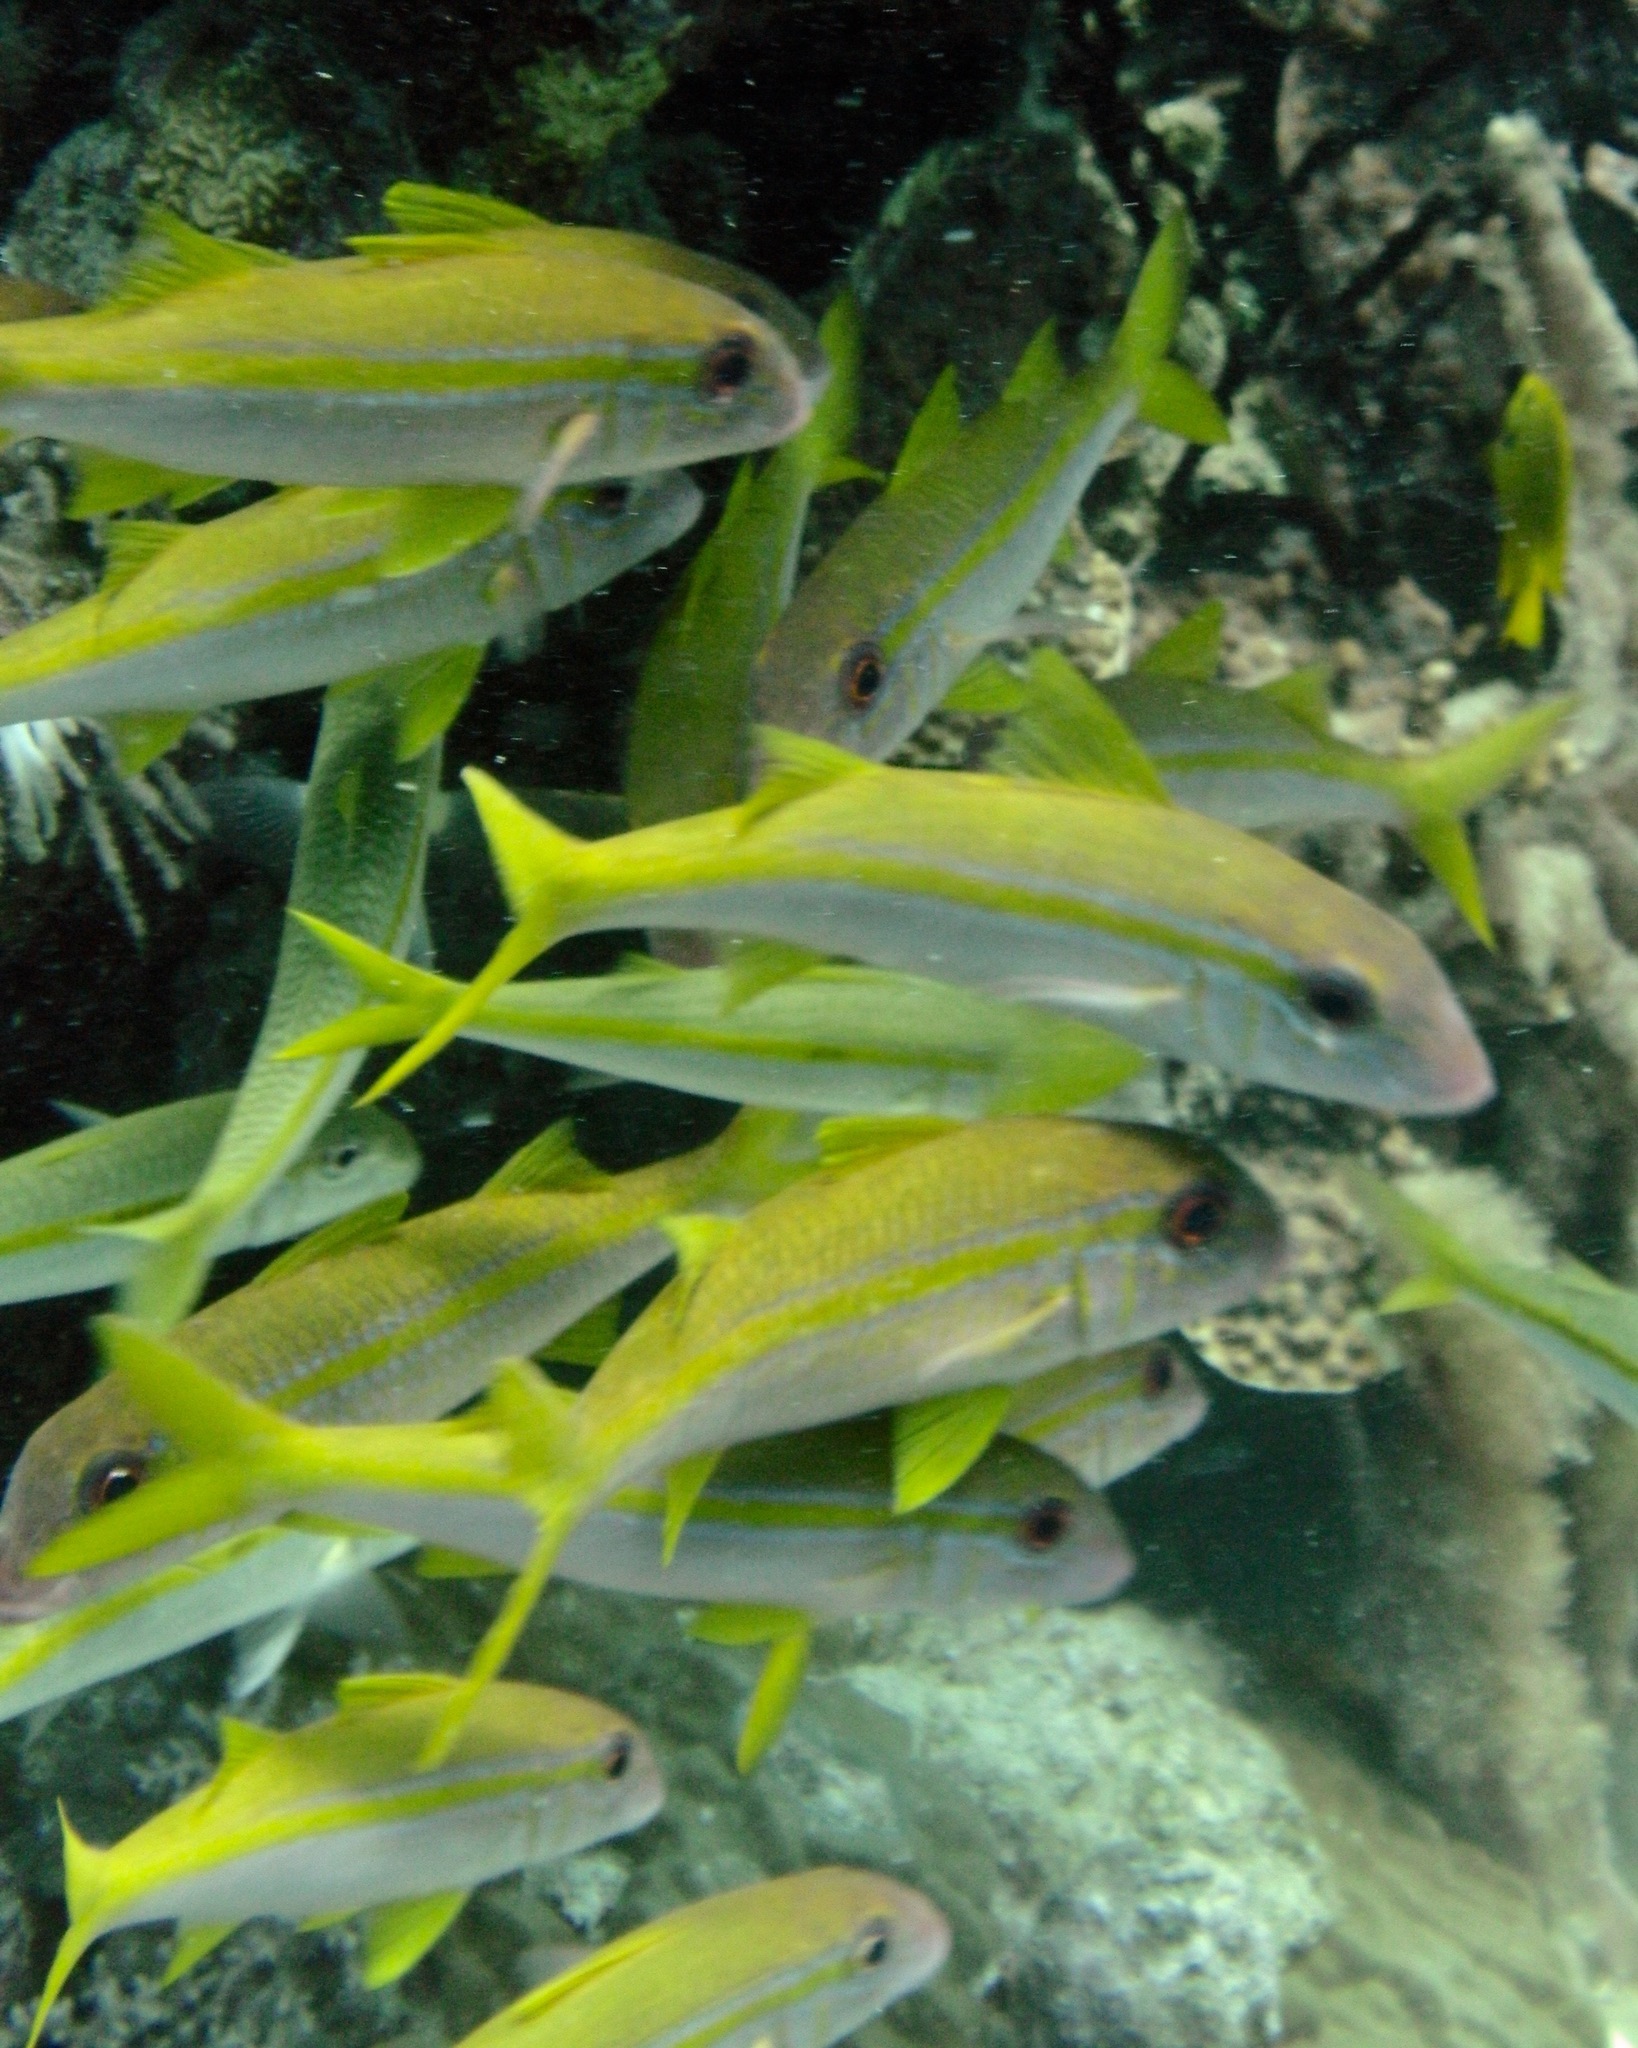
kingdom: Animalia
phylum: Chordata
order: Perciformes
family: Mullidae
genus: Mulloidichthys
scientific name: Mulloidichthys vanicolensis
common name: Yellowfin goatfish
